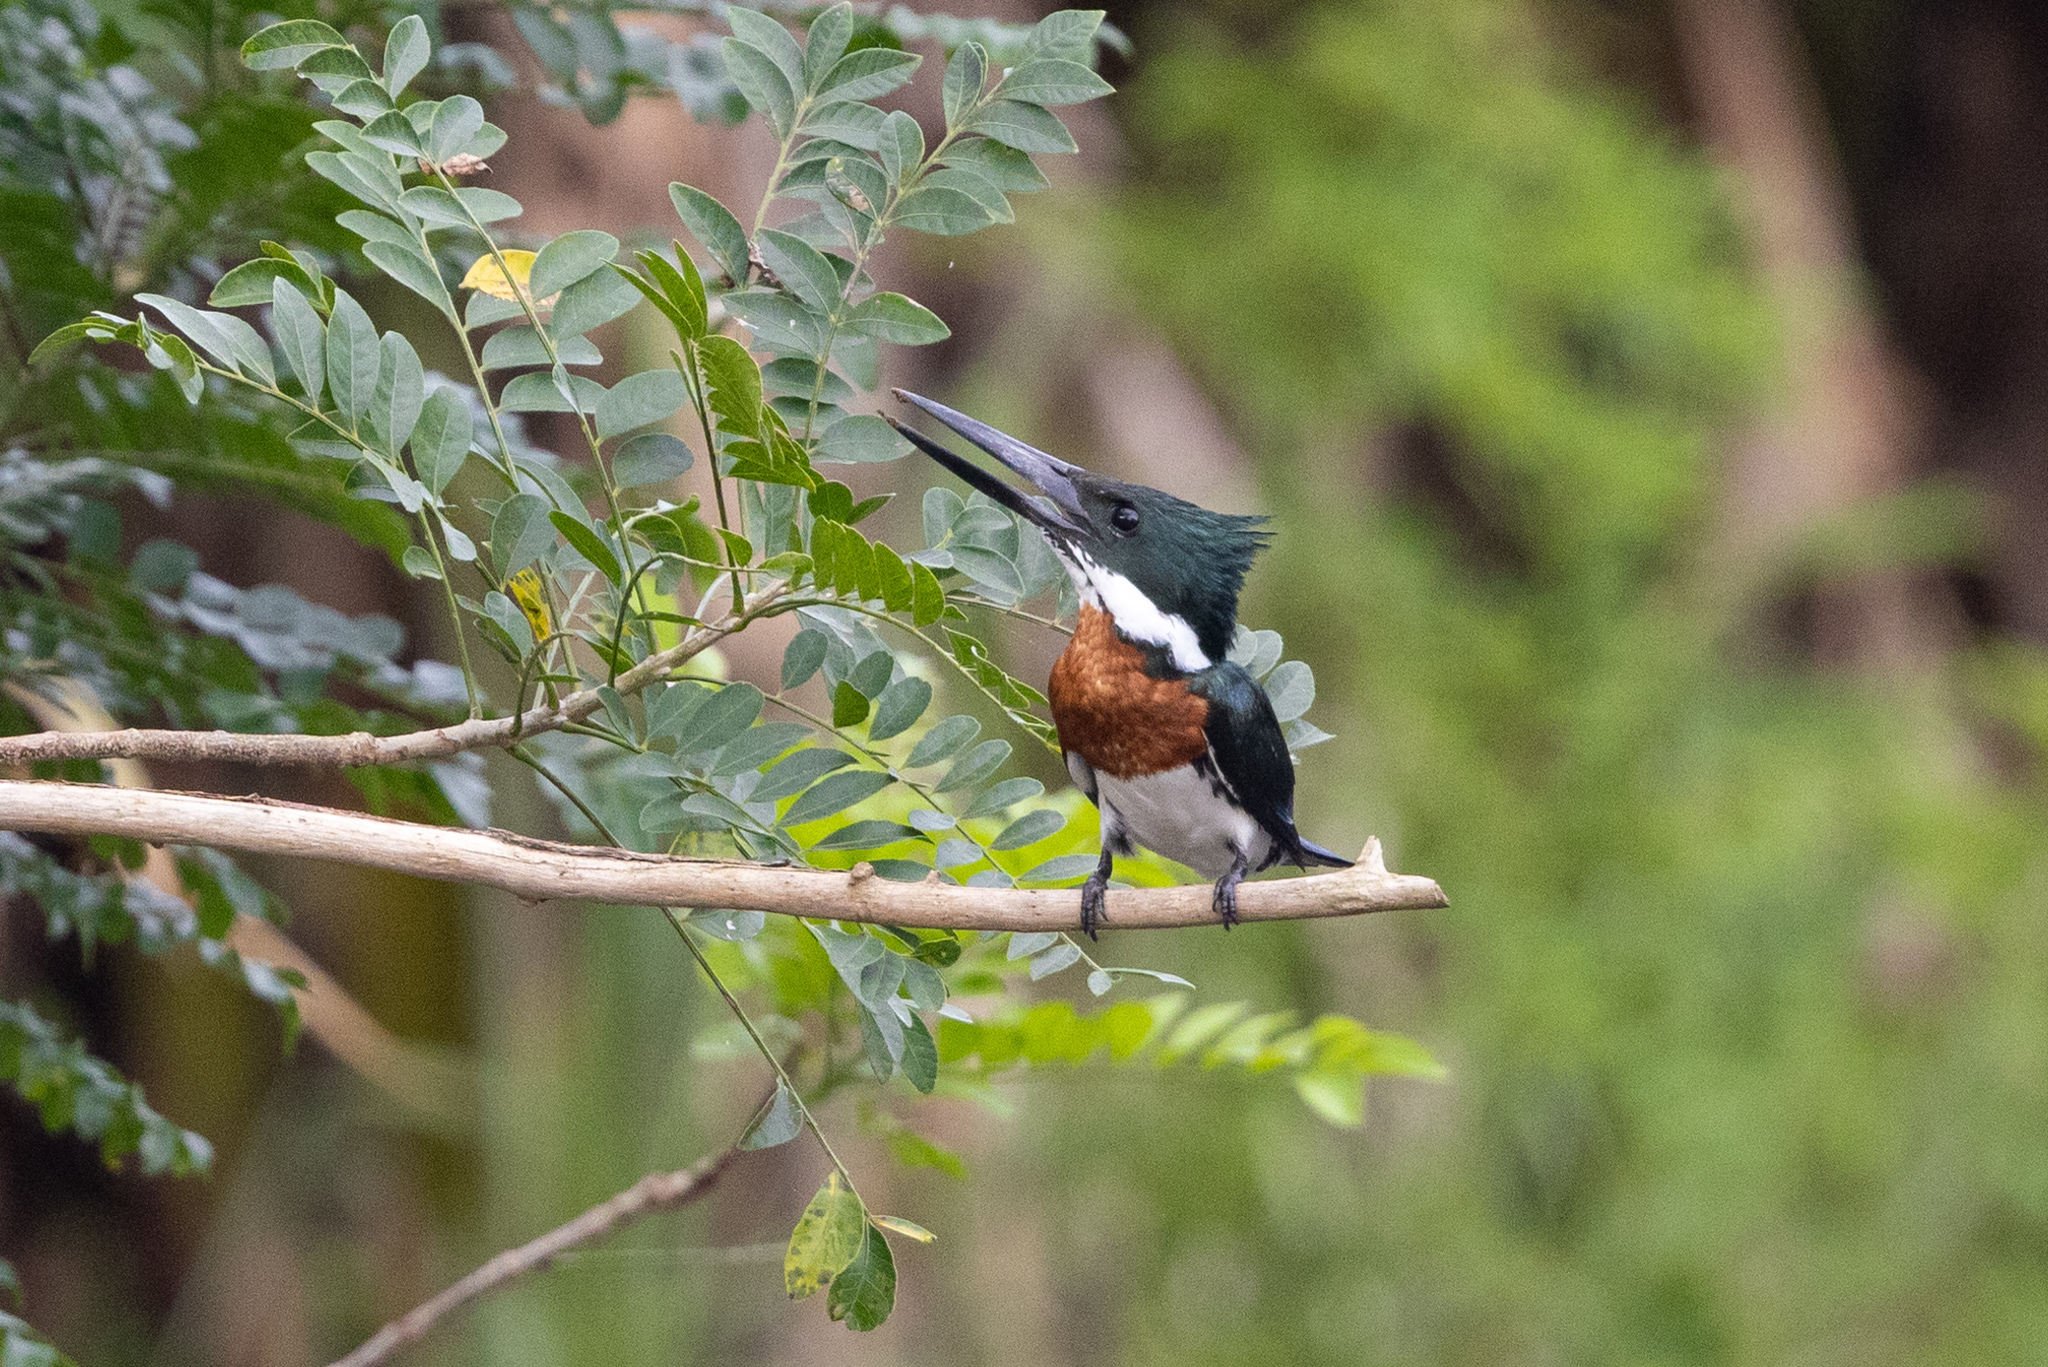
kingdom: Animalia
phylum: Chordata
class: Aves
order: Coraciiformes
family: Alcedinidae
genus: Chloroceryle
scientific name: Chloroceryle amazona
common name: Amazon kingfisher
